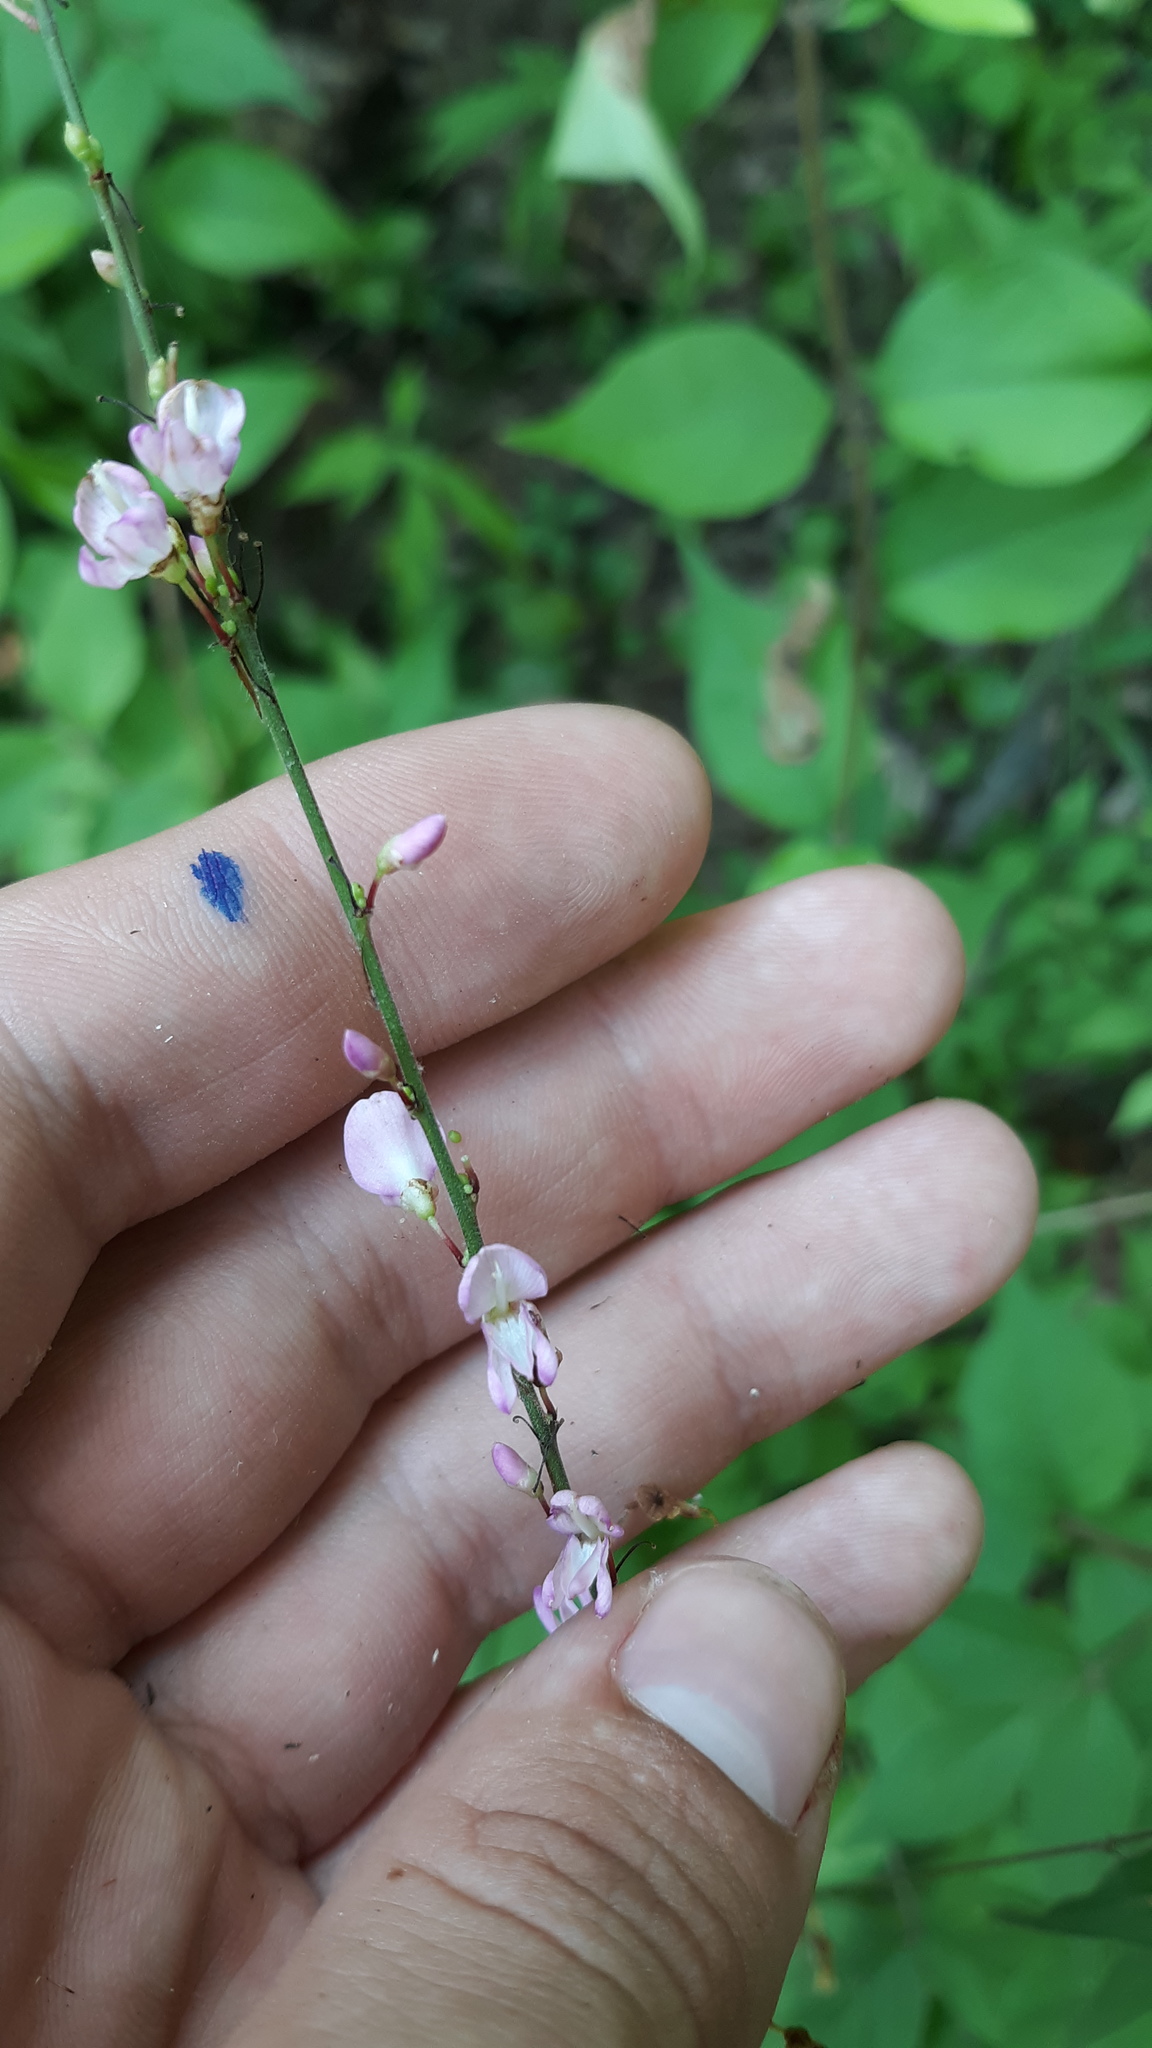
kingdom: Plantae
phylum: Tracheophyta
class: Magnoliopsida
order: Fabales
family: Fabaceae
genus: Hylodesmum
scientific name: Hylodesmum glutinosum
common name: Clustered-leaved tick-trefoil
